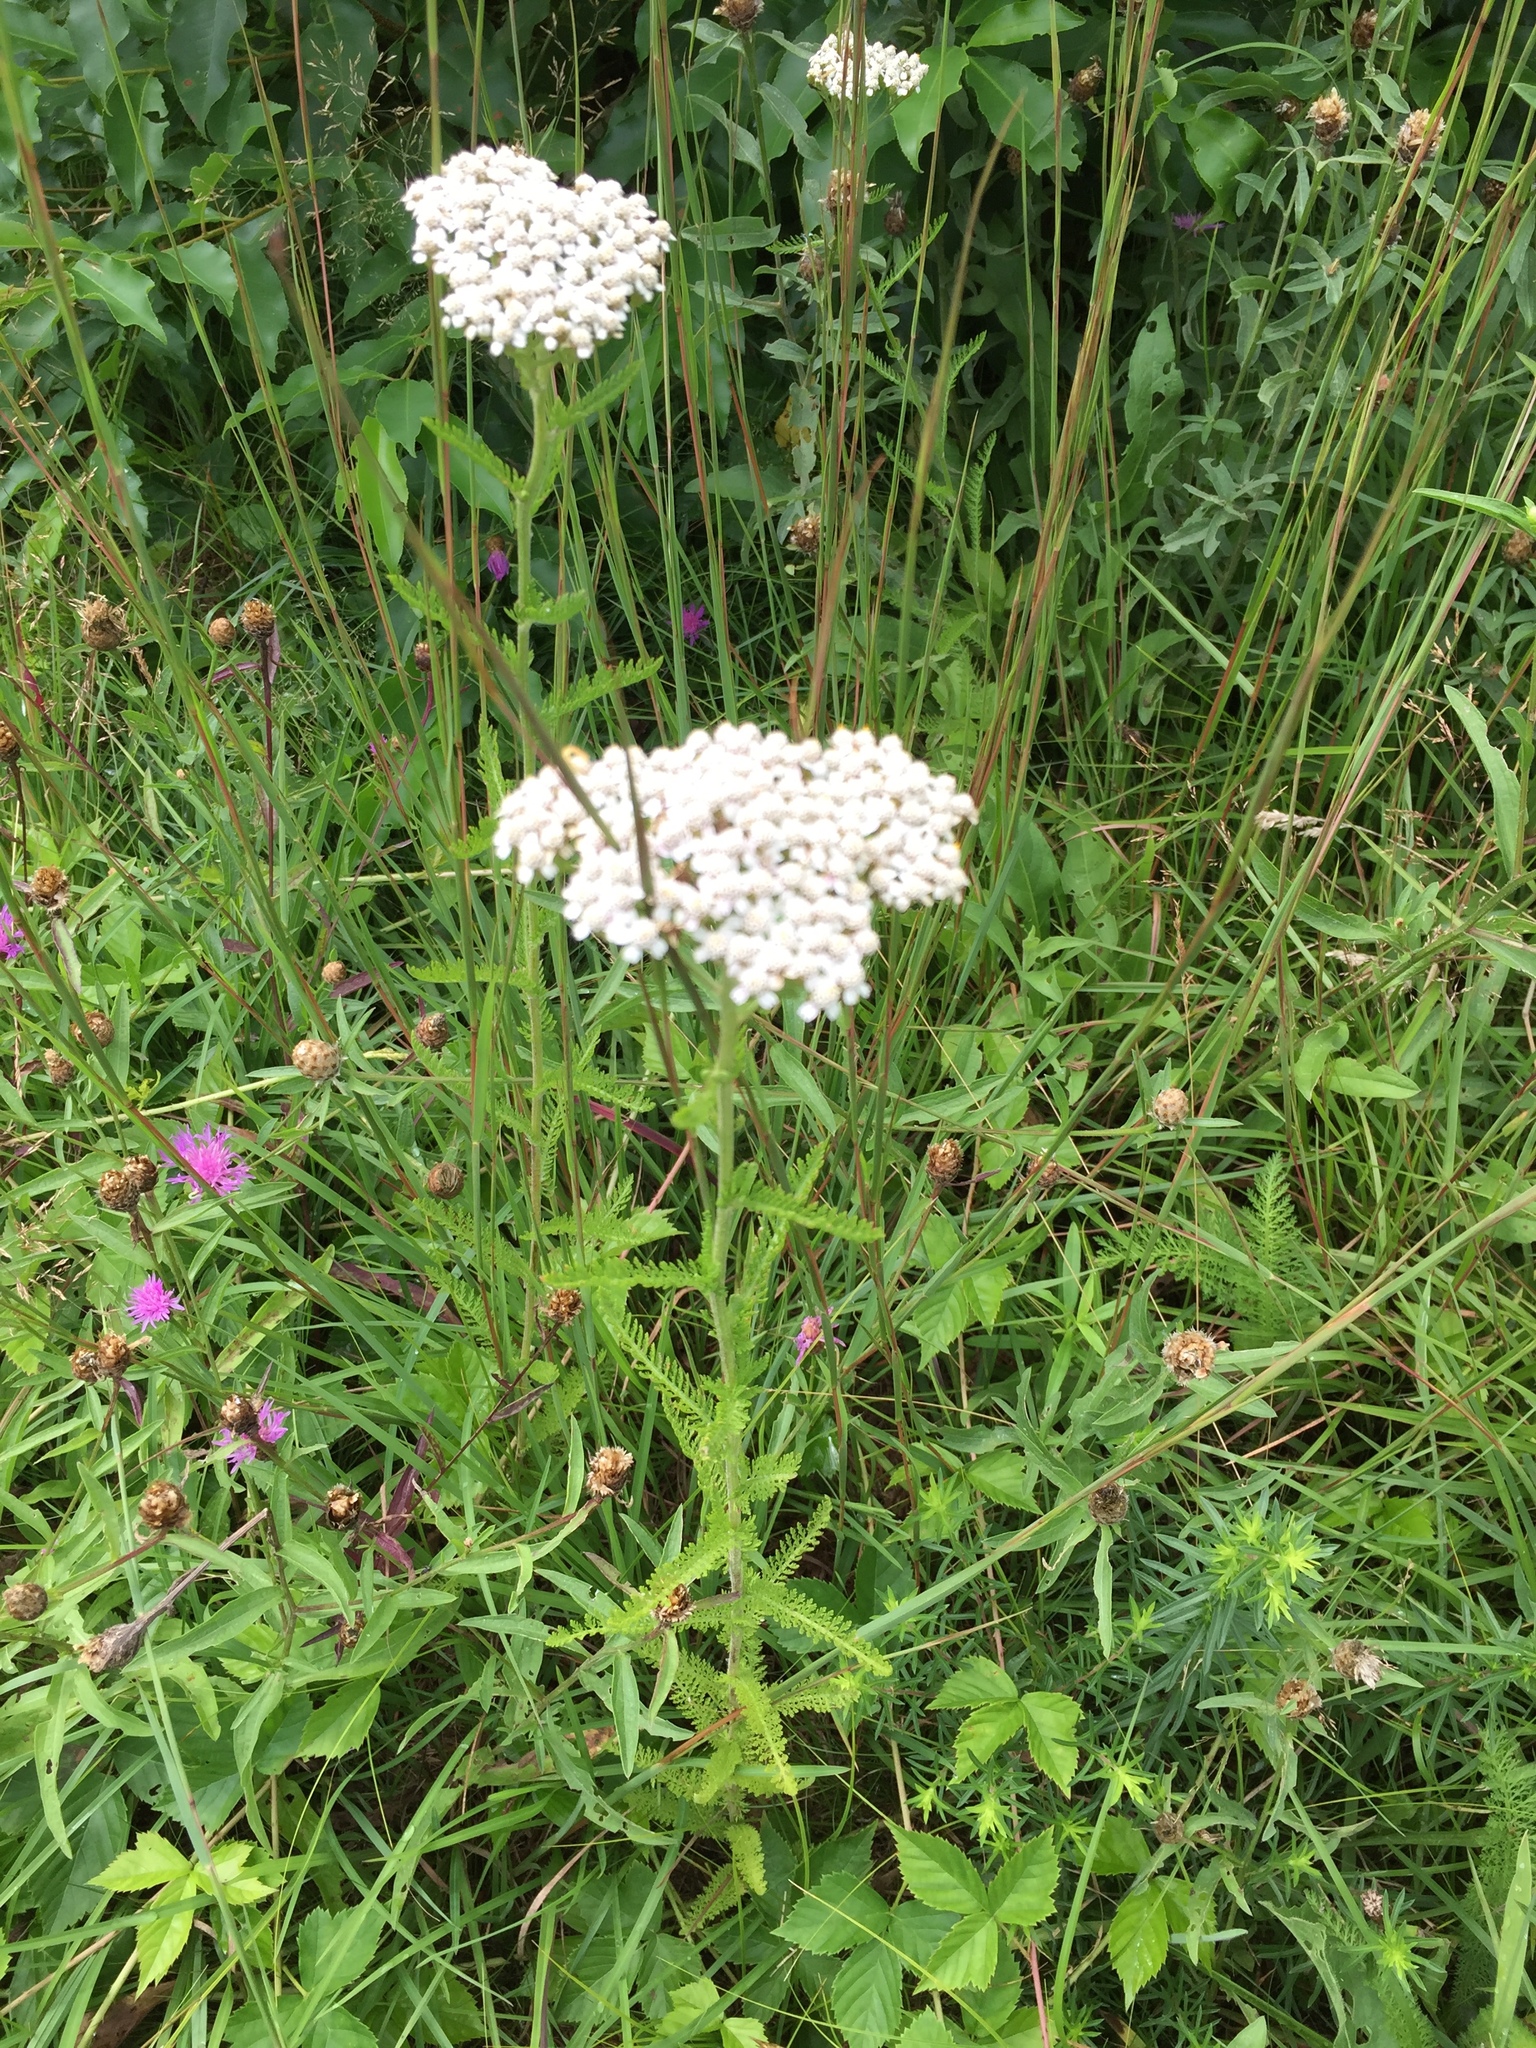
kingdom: Plantae
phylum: Tracheophyta
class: Magnoliopsida
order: Asterales
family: Asteraceae
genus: Achillea
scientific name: Achillea millefolium
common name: Yarrow
